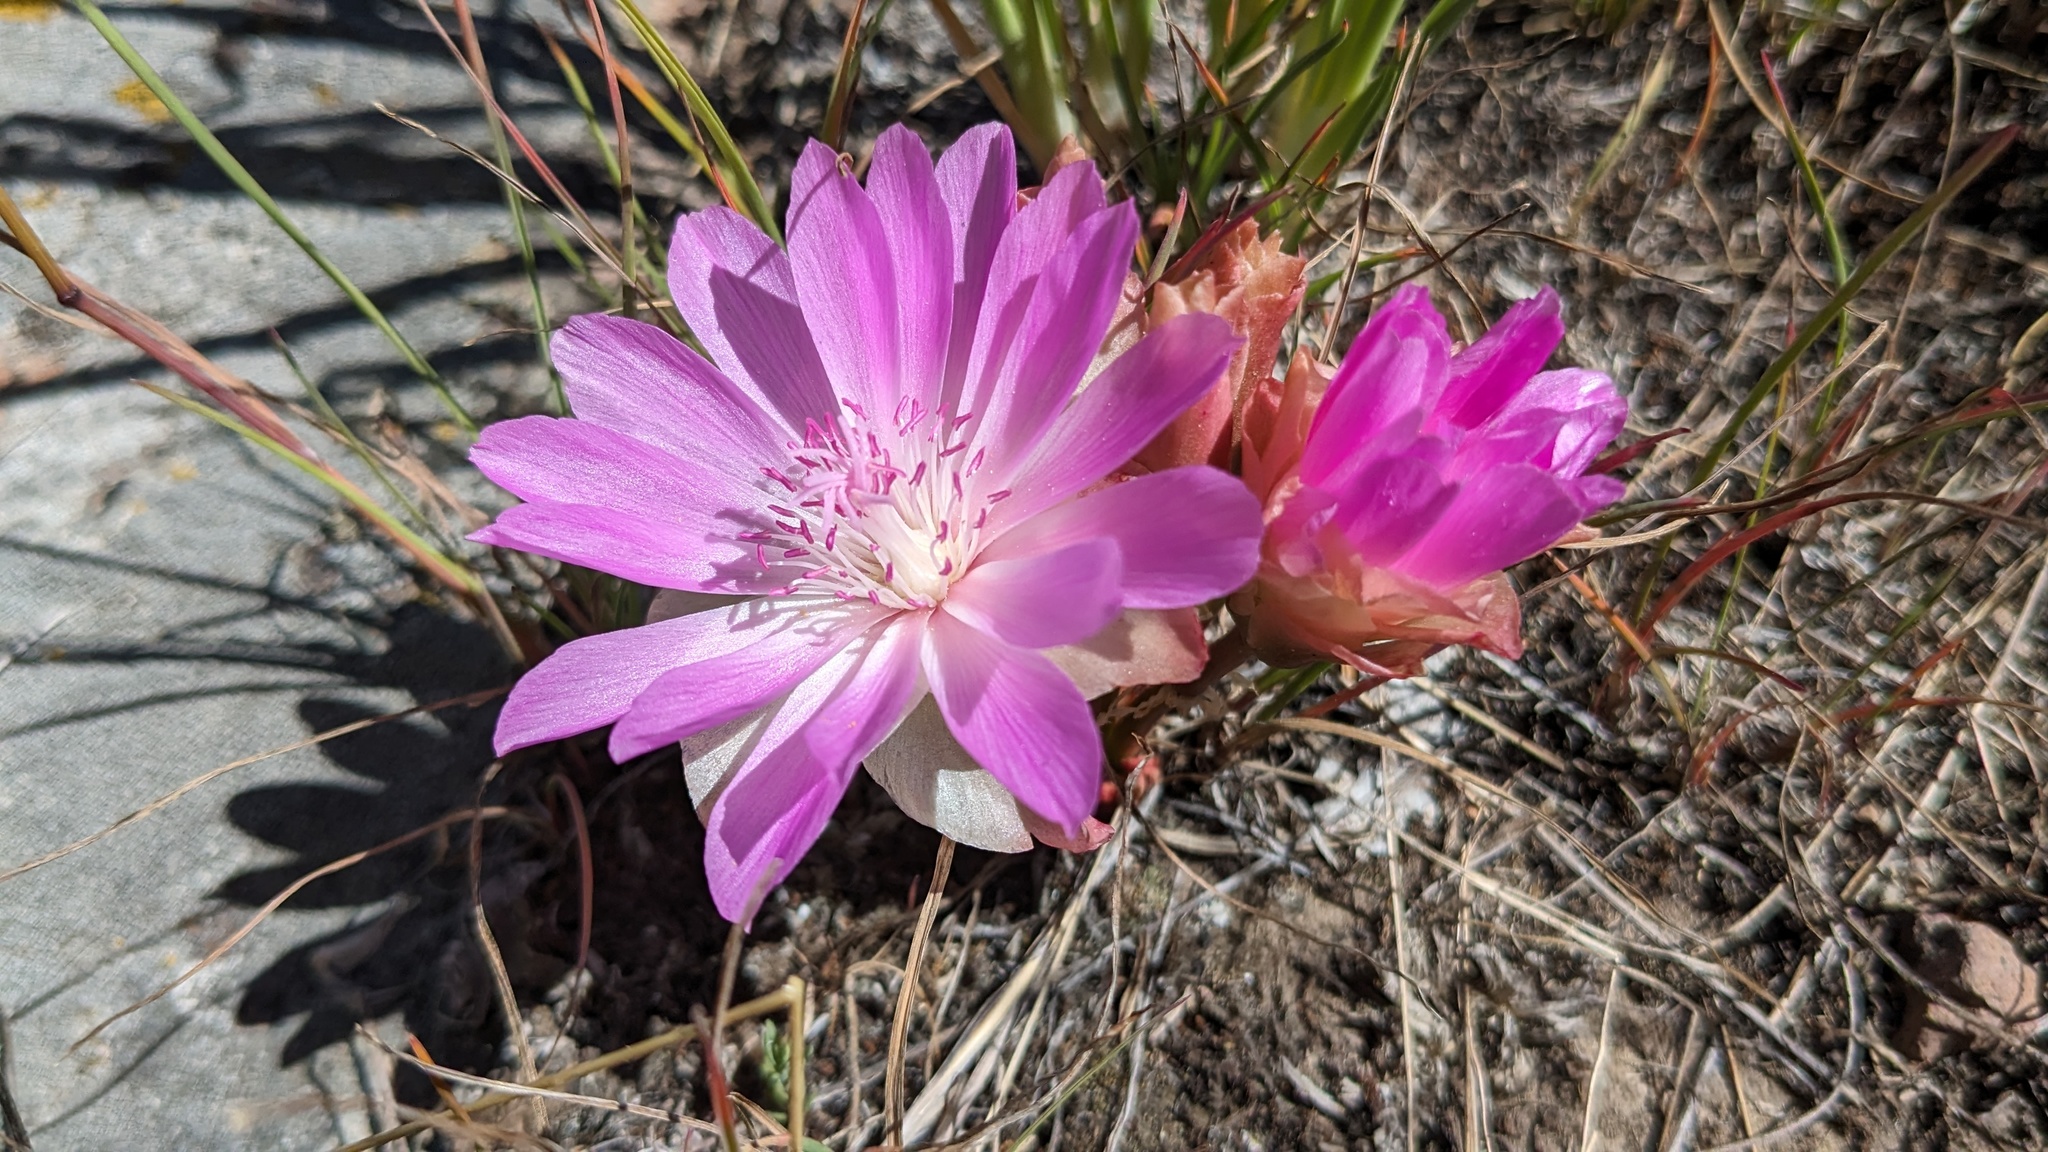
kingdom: Plantae
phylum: Tracheophyta
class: Magnoliopsida
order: Caryophyllales
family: Montiaceae
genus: Lewisia
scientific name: Lewisia rediviva
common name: Bitter-root
